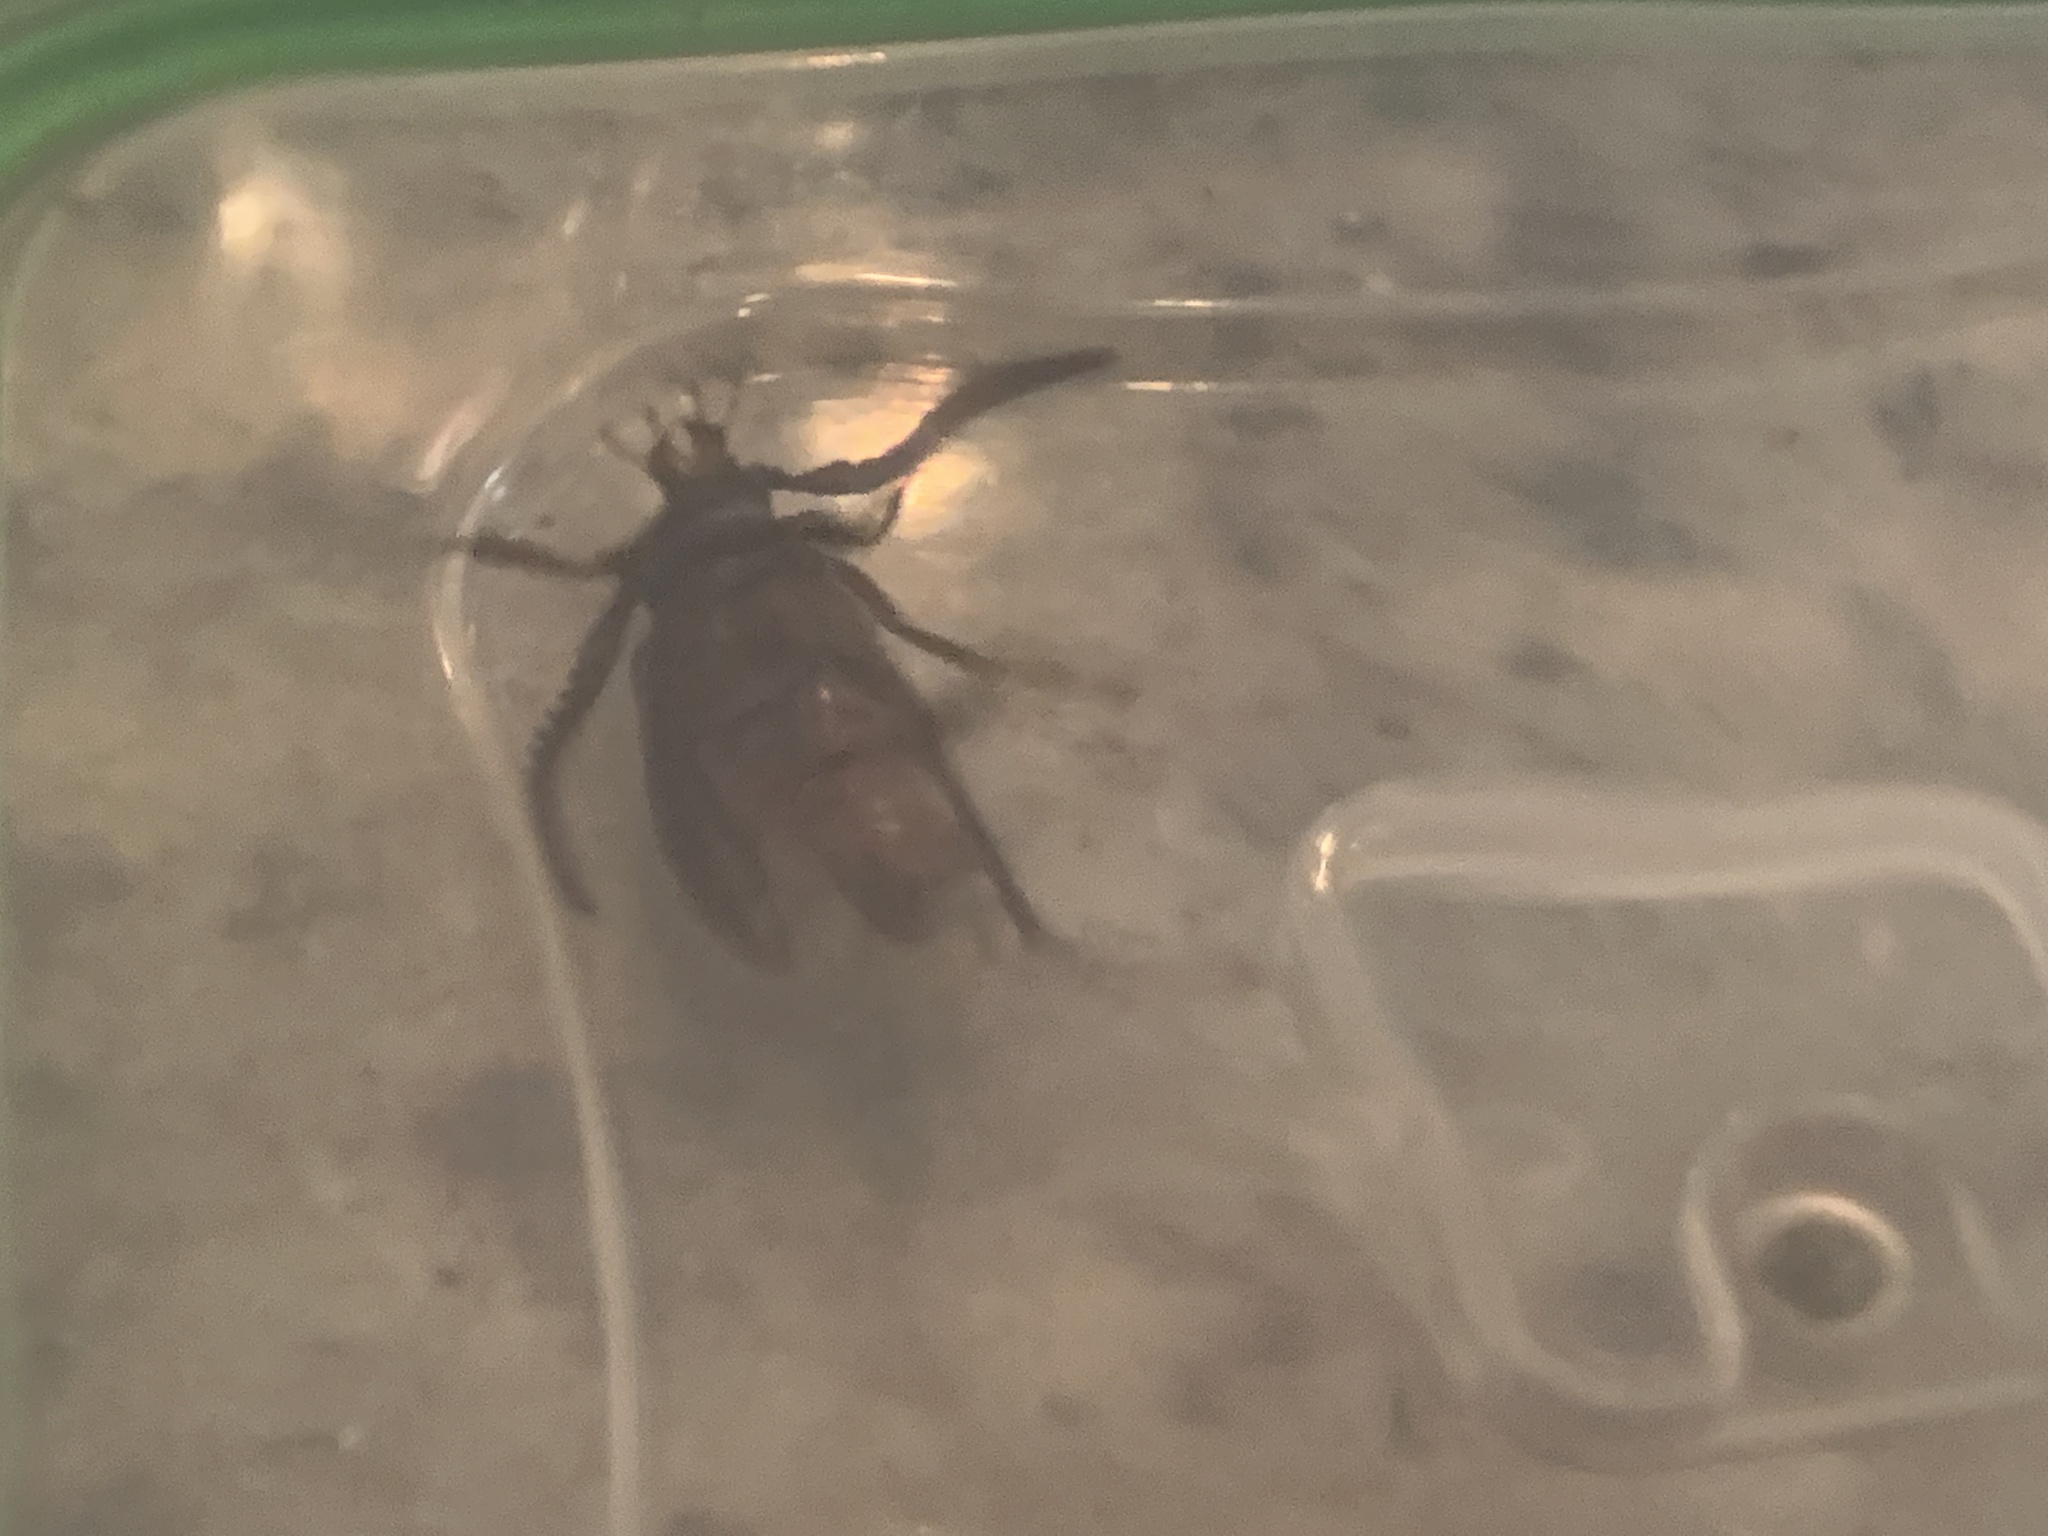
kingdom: Animalia
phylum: Arthropoda
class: Insecta
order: Coleoptera
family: Cerambycidae
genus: Prionus
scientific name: Prionus imbricornis
